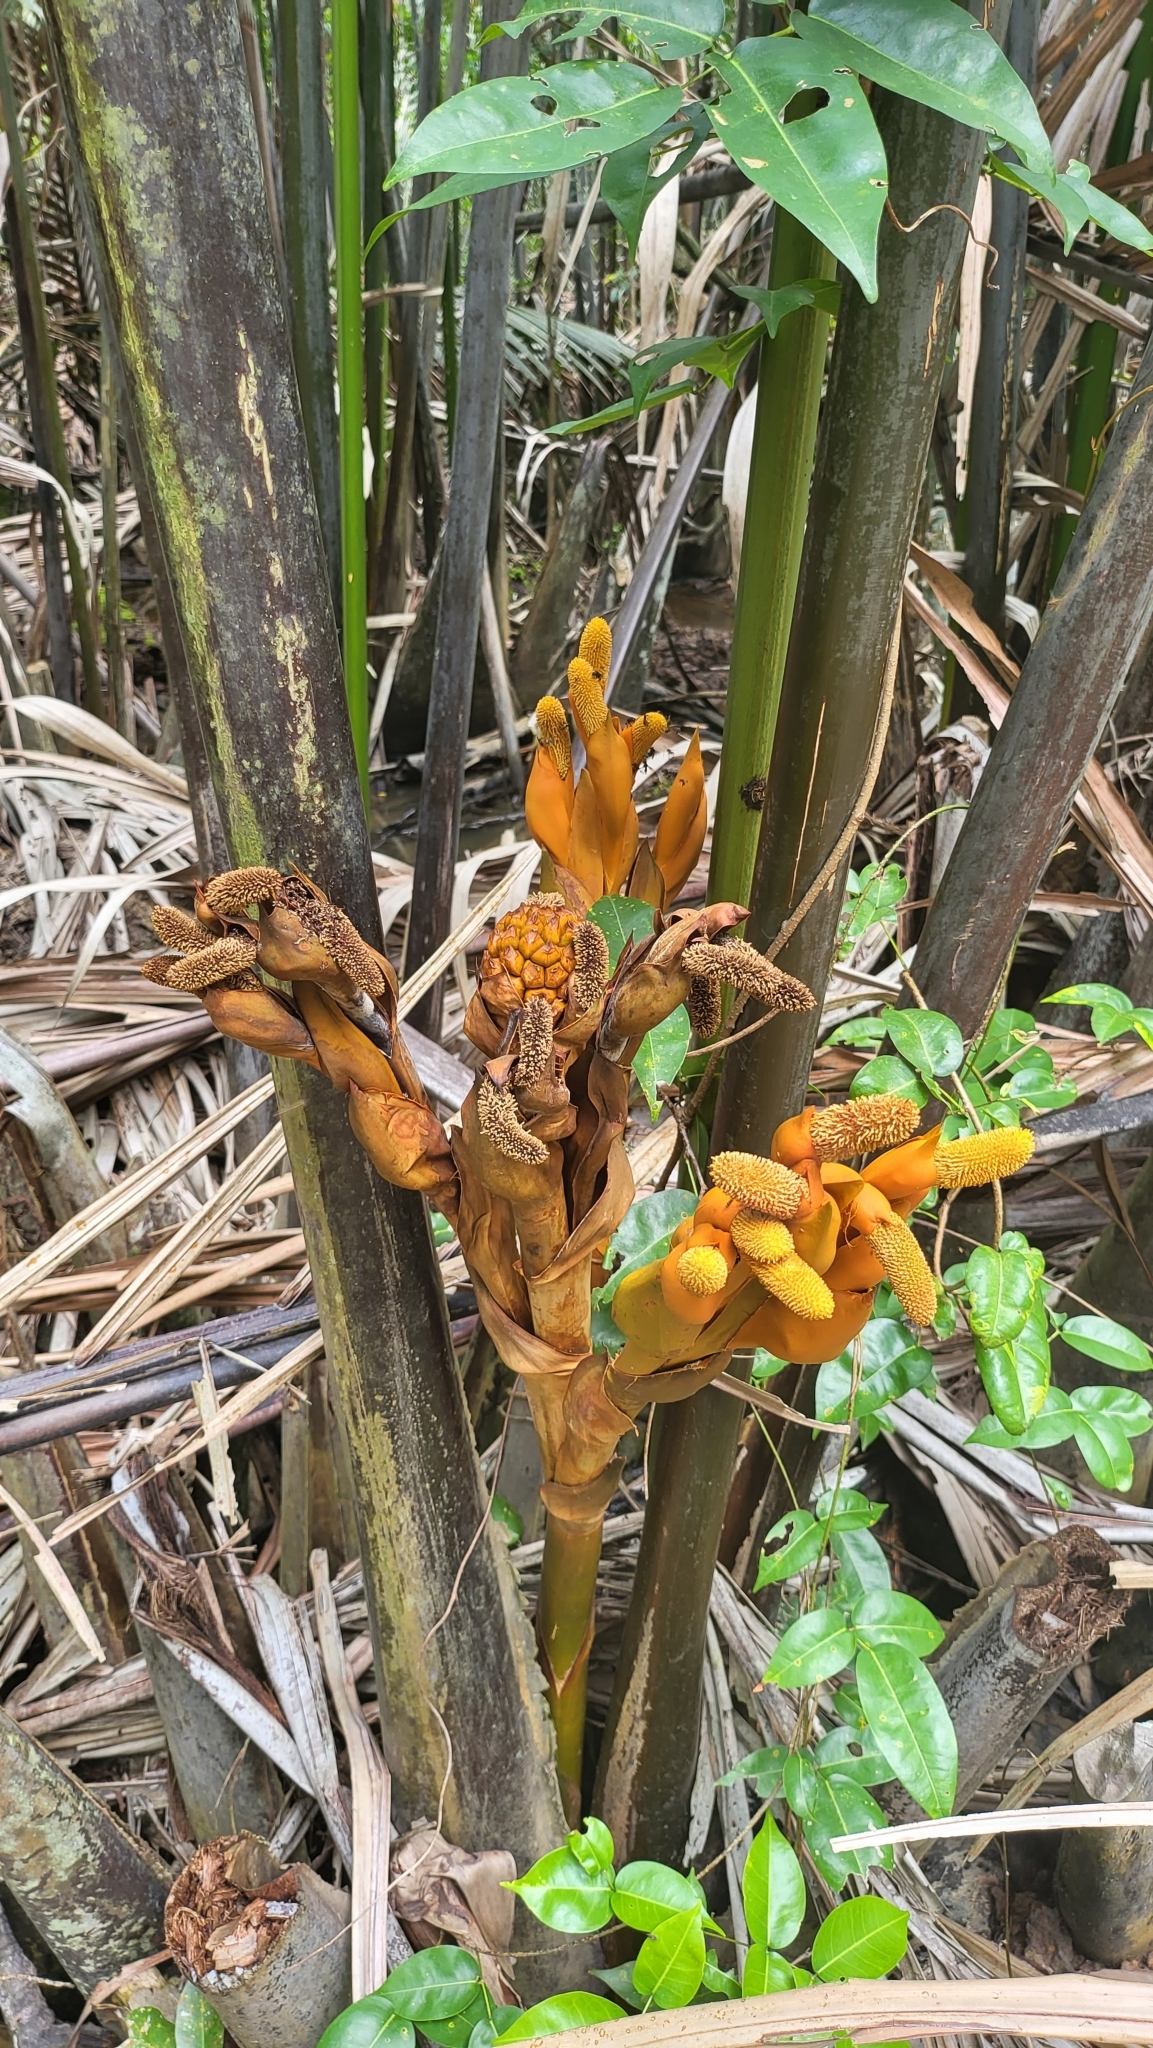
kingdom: Plantae
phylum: Tracheophyta
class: Liliopsida
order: Arecales
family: Arecaceae
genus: Nypa
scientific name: Nypa fruticans
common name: Mangrove palm
